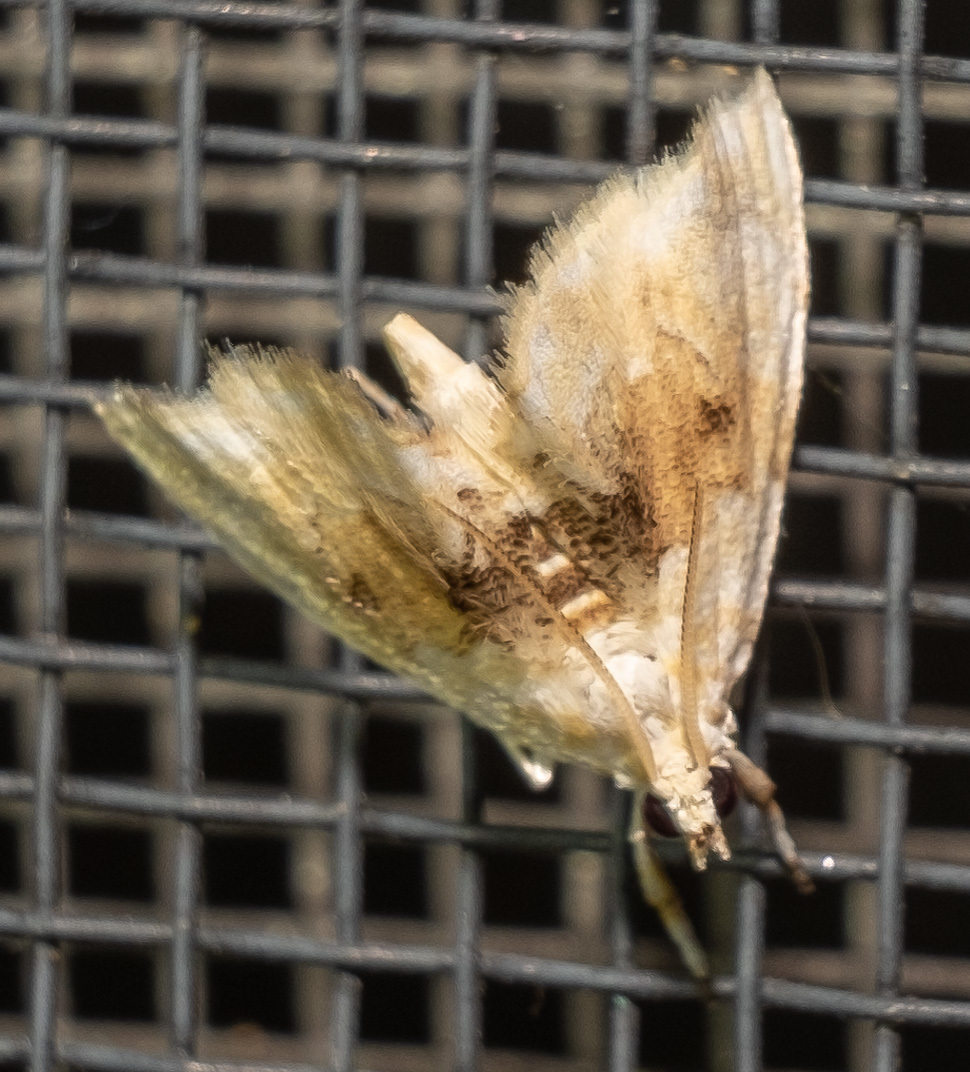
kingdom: Animalia
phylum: Arthropoda
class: Insecta
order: Lepidoptera
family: Crambidae
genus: Lipocosma
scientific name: Lipocosma sicalis
